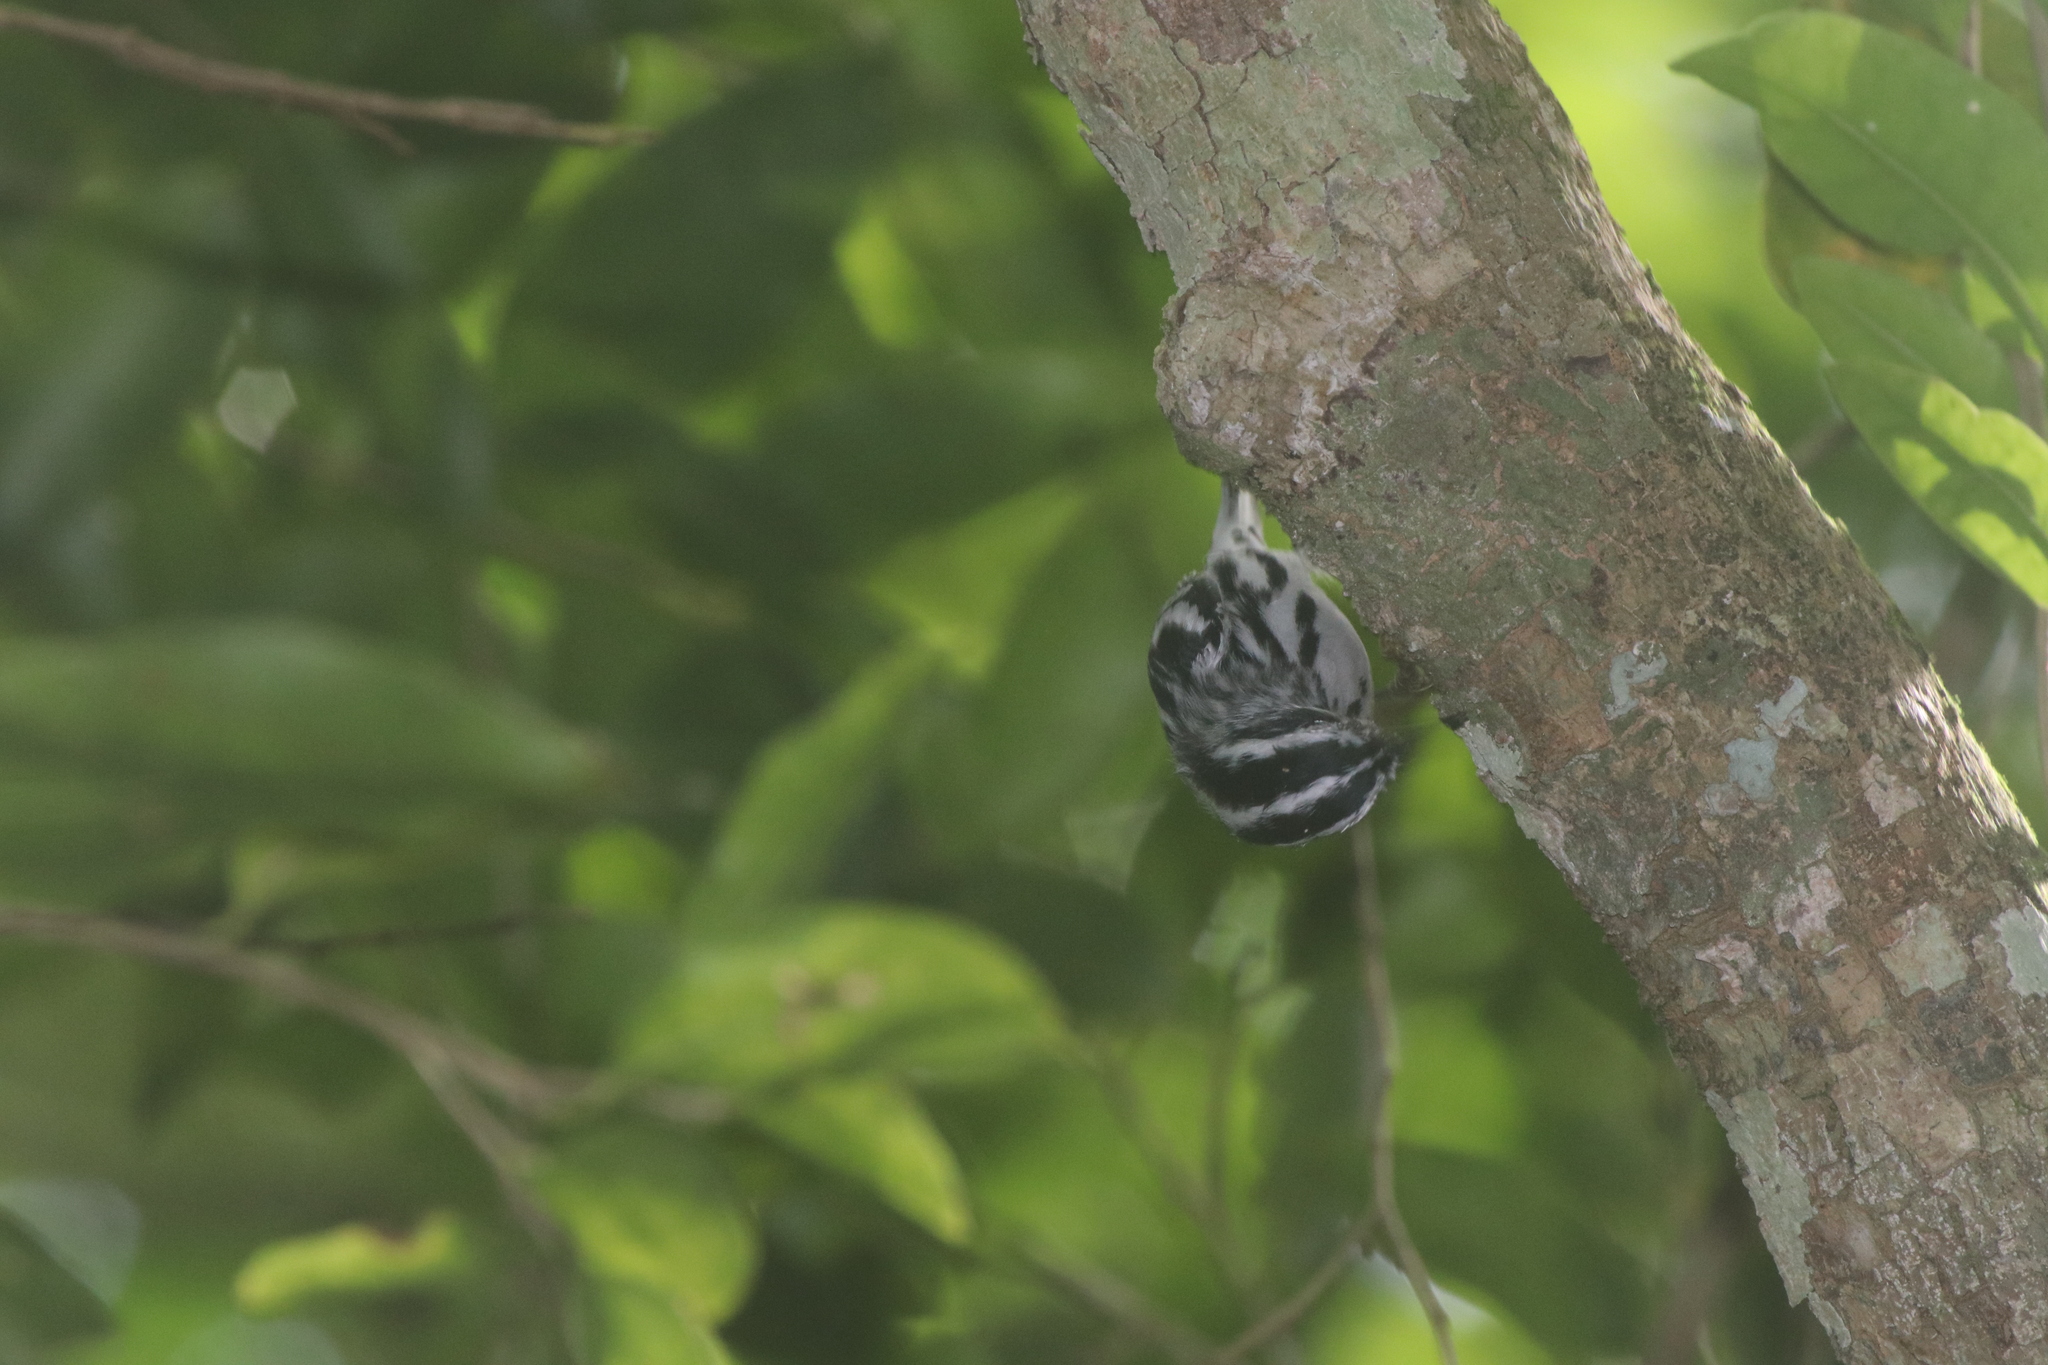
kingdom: Animalia
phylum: Chordata
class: Aves
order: Passeriformes
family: Parulidae
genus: Mniotilta
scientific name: Mniotilta varia
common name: Black-and-white warbler
